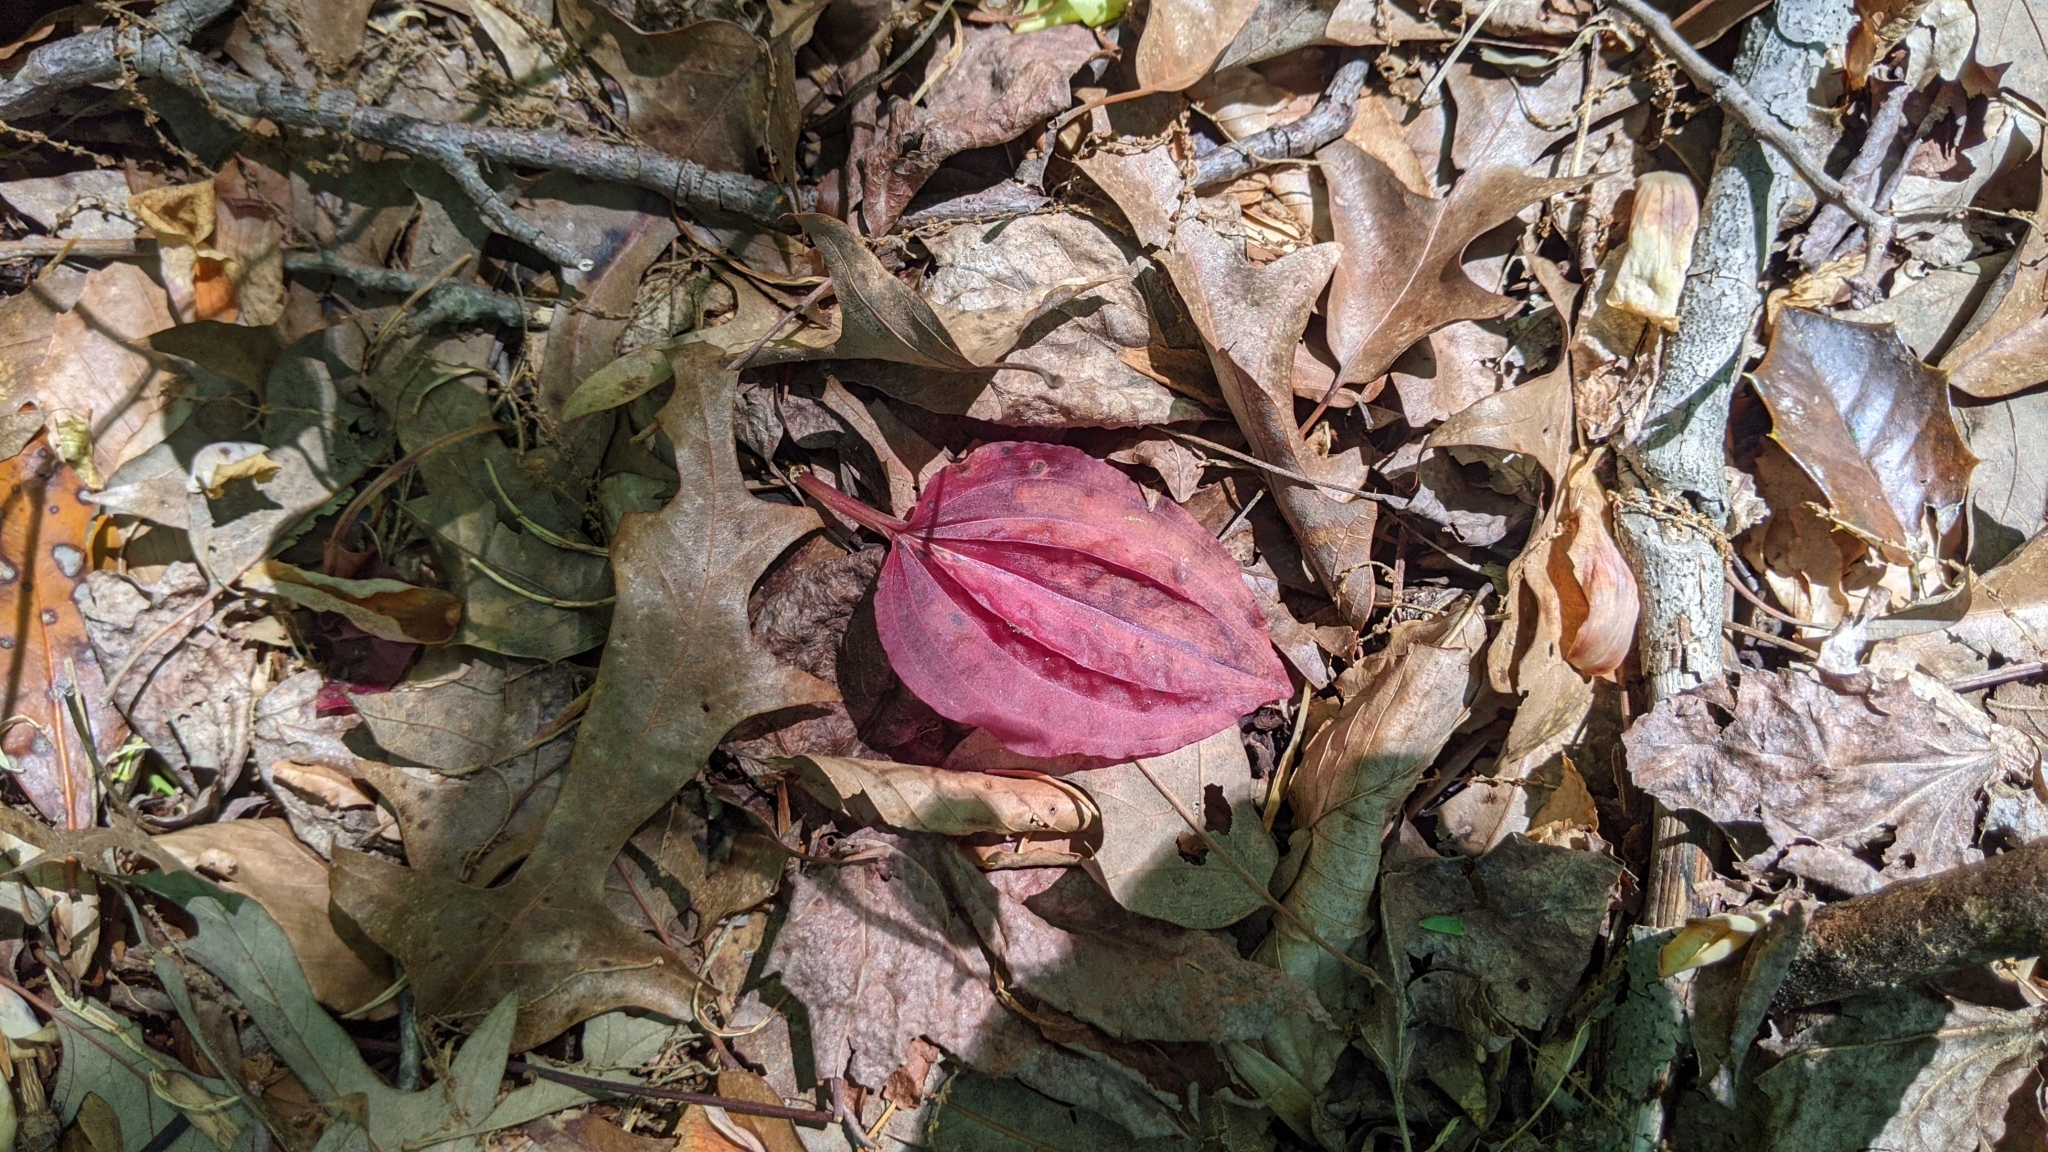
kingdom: Plantae
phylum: Tracheophyta
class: Liliopsida
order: Asparagales
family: Orchidaceae
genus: Tipularia
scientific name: Tipularia discolor
